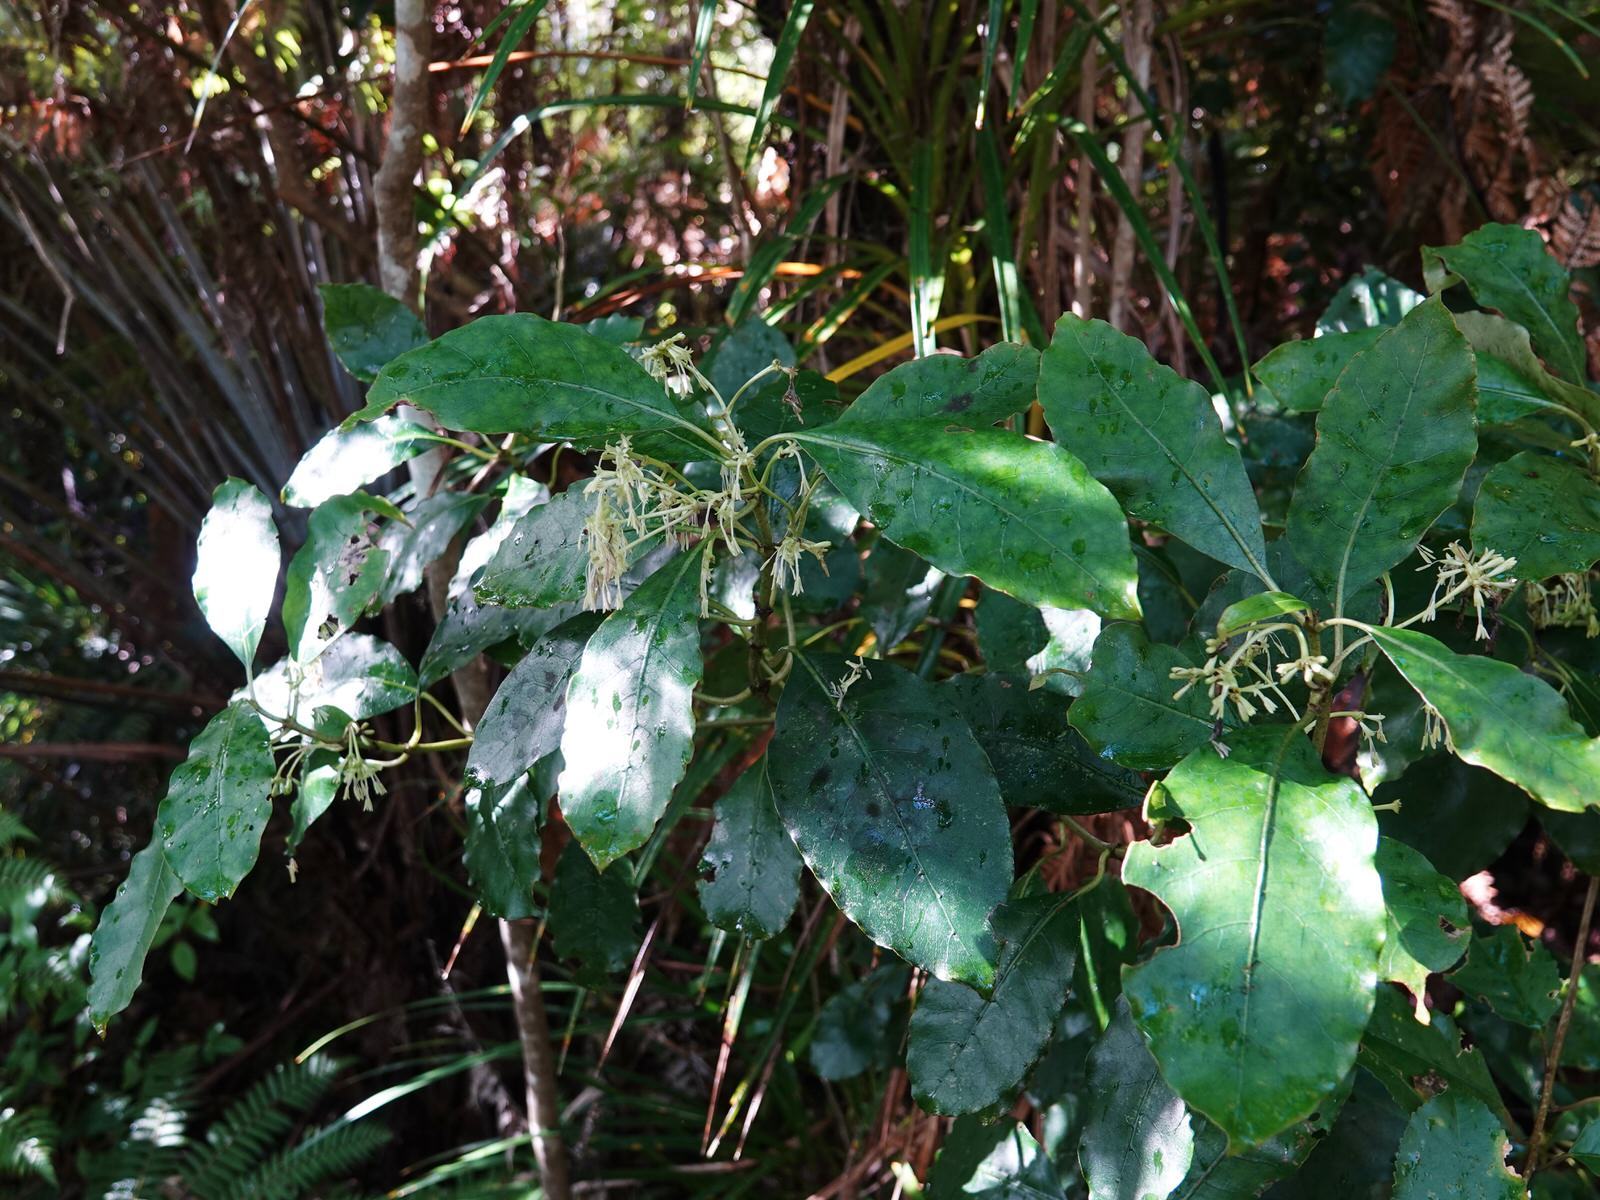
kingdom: Plantae
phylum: Tracheophyta
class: Magnoliopsida
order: Gentianales
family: Rubiaceae
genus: Coprosma
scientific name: Coprosma autumnalis
